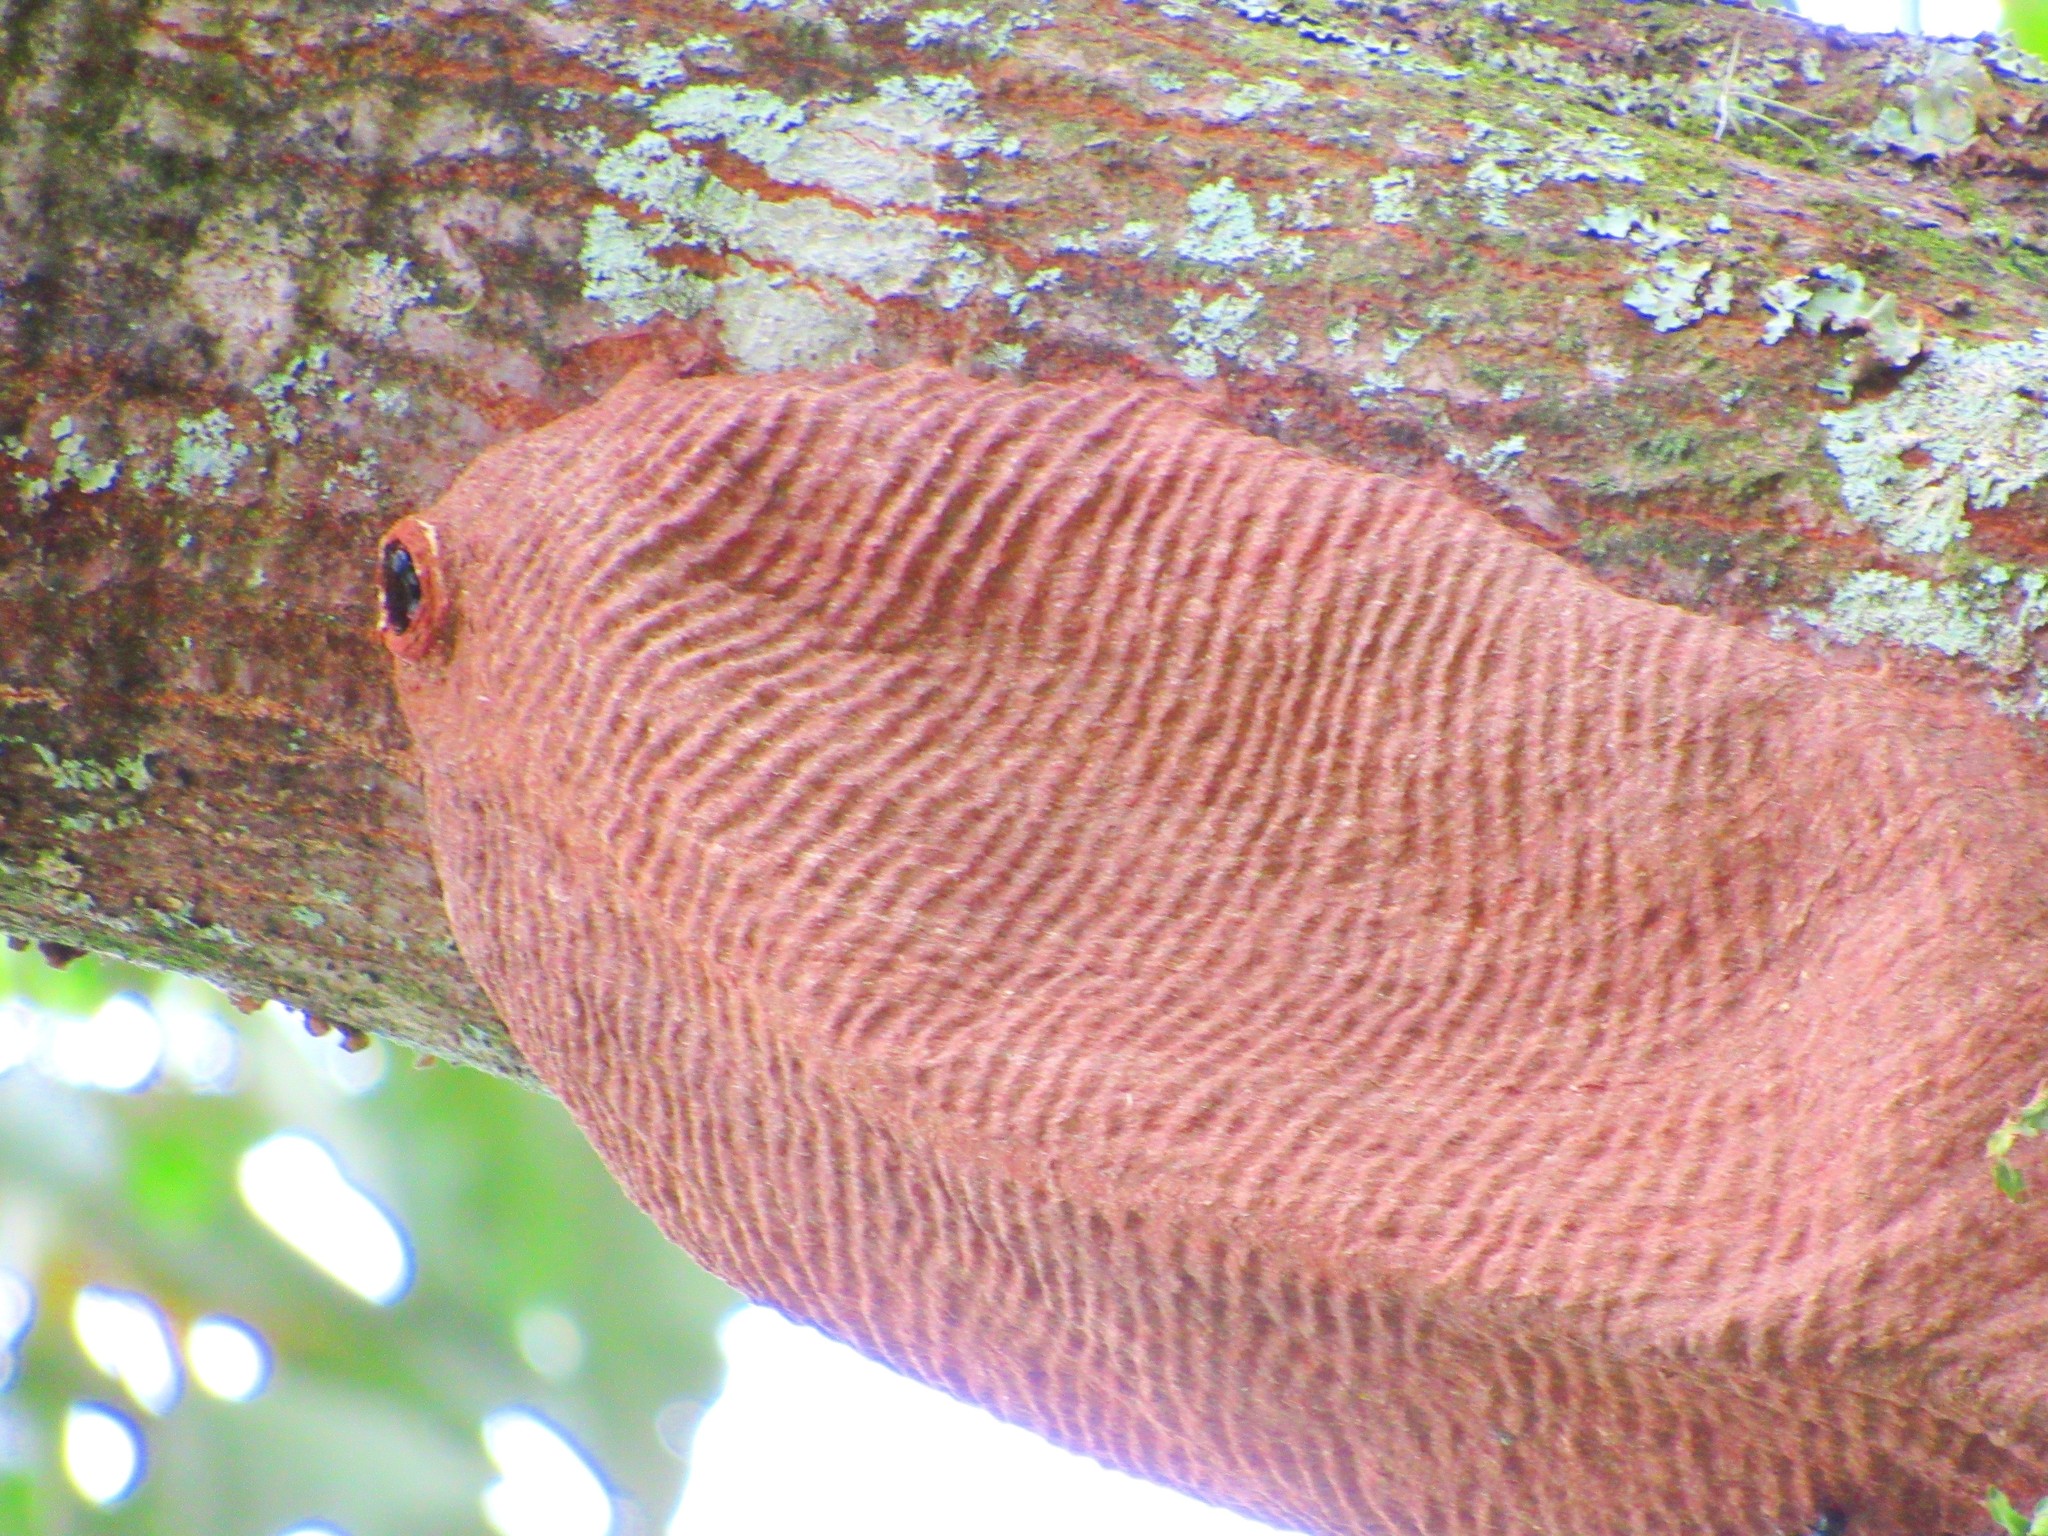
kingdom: Animalia
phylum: Arthropoda
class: Insecta
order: Hymenoptera
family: Vespidae
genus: Synoeca
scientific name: Synoeca cyanea
